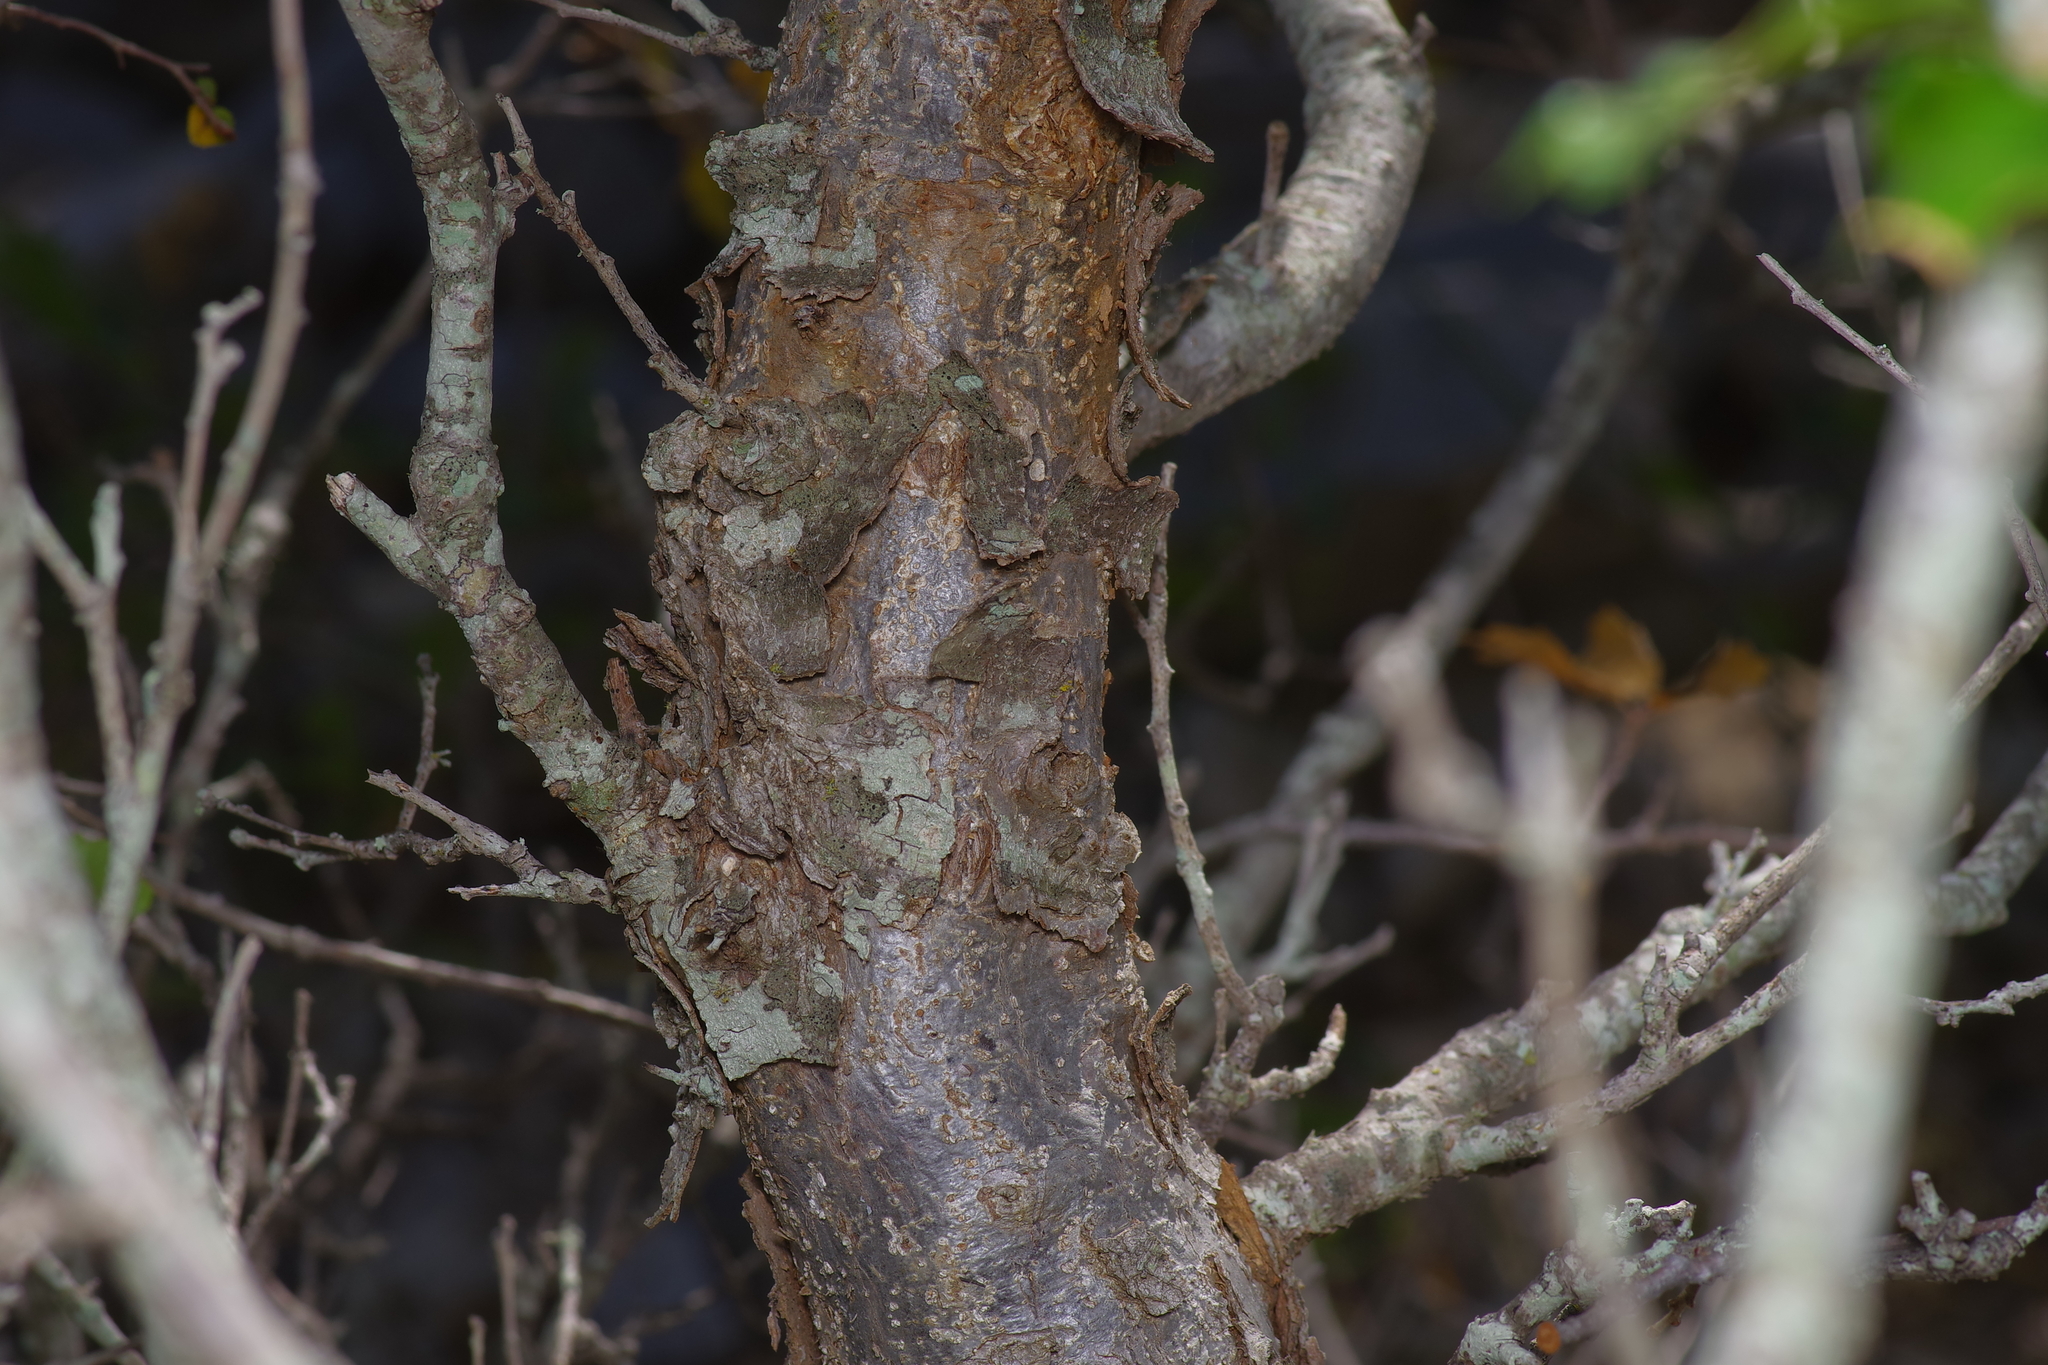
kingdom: Plantae
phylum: Tracheophyta
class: Magnoliopsida
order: Fagales
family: Fagaceae
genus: Quercus
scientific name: Quercus vaseyana
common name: Sandpaper oak
